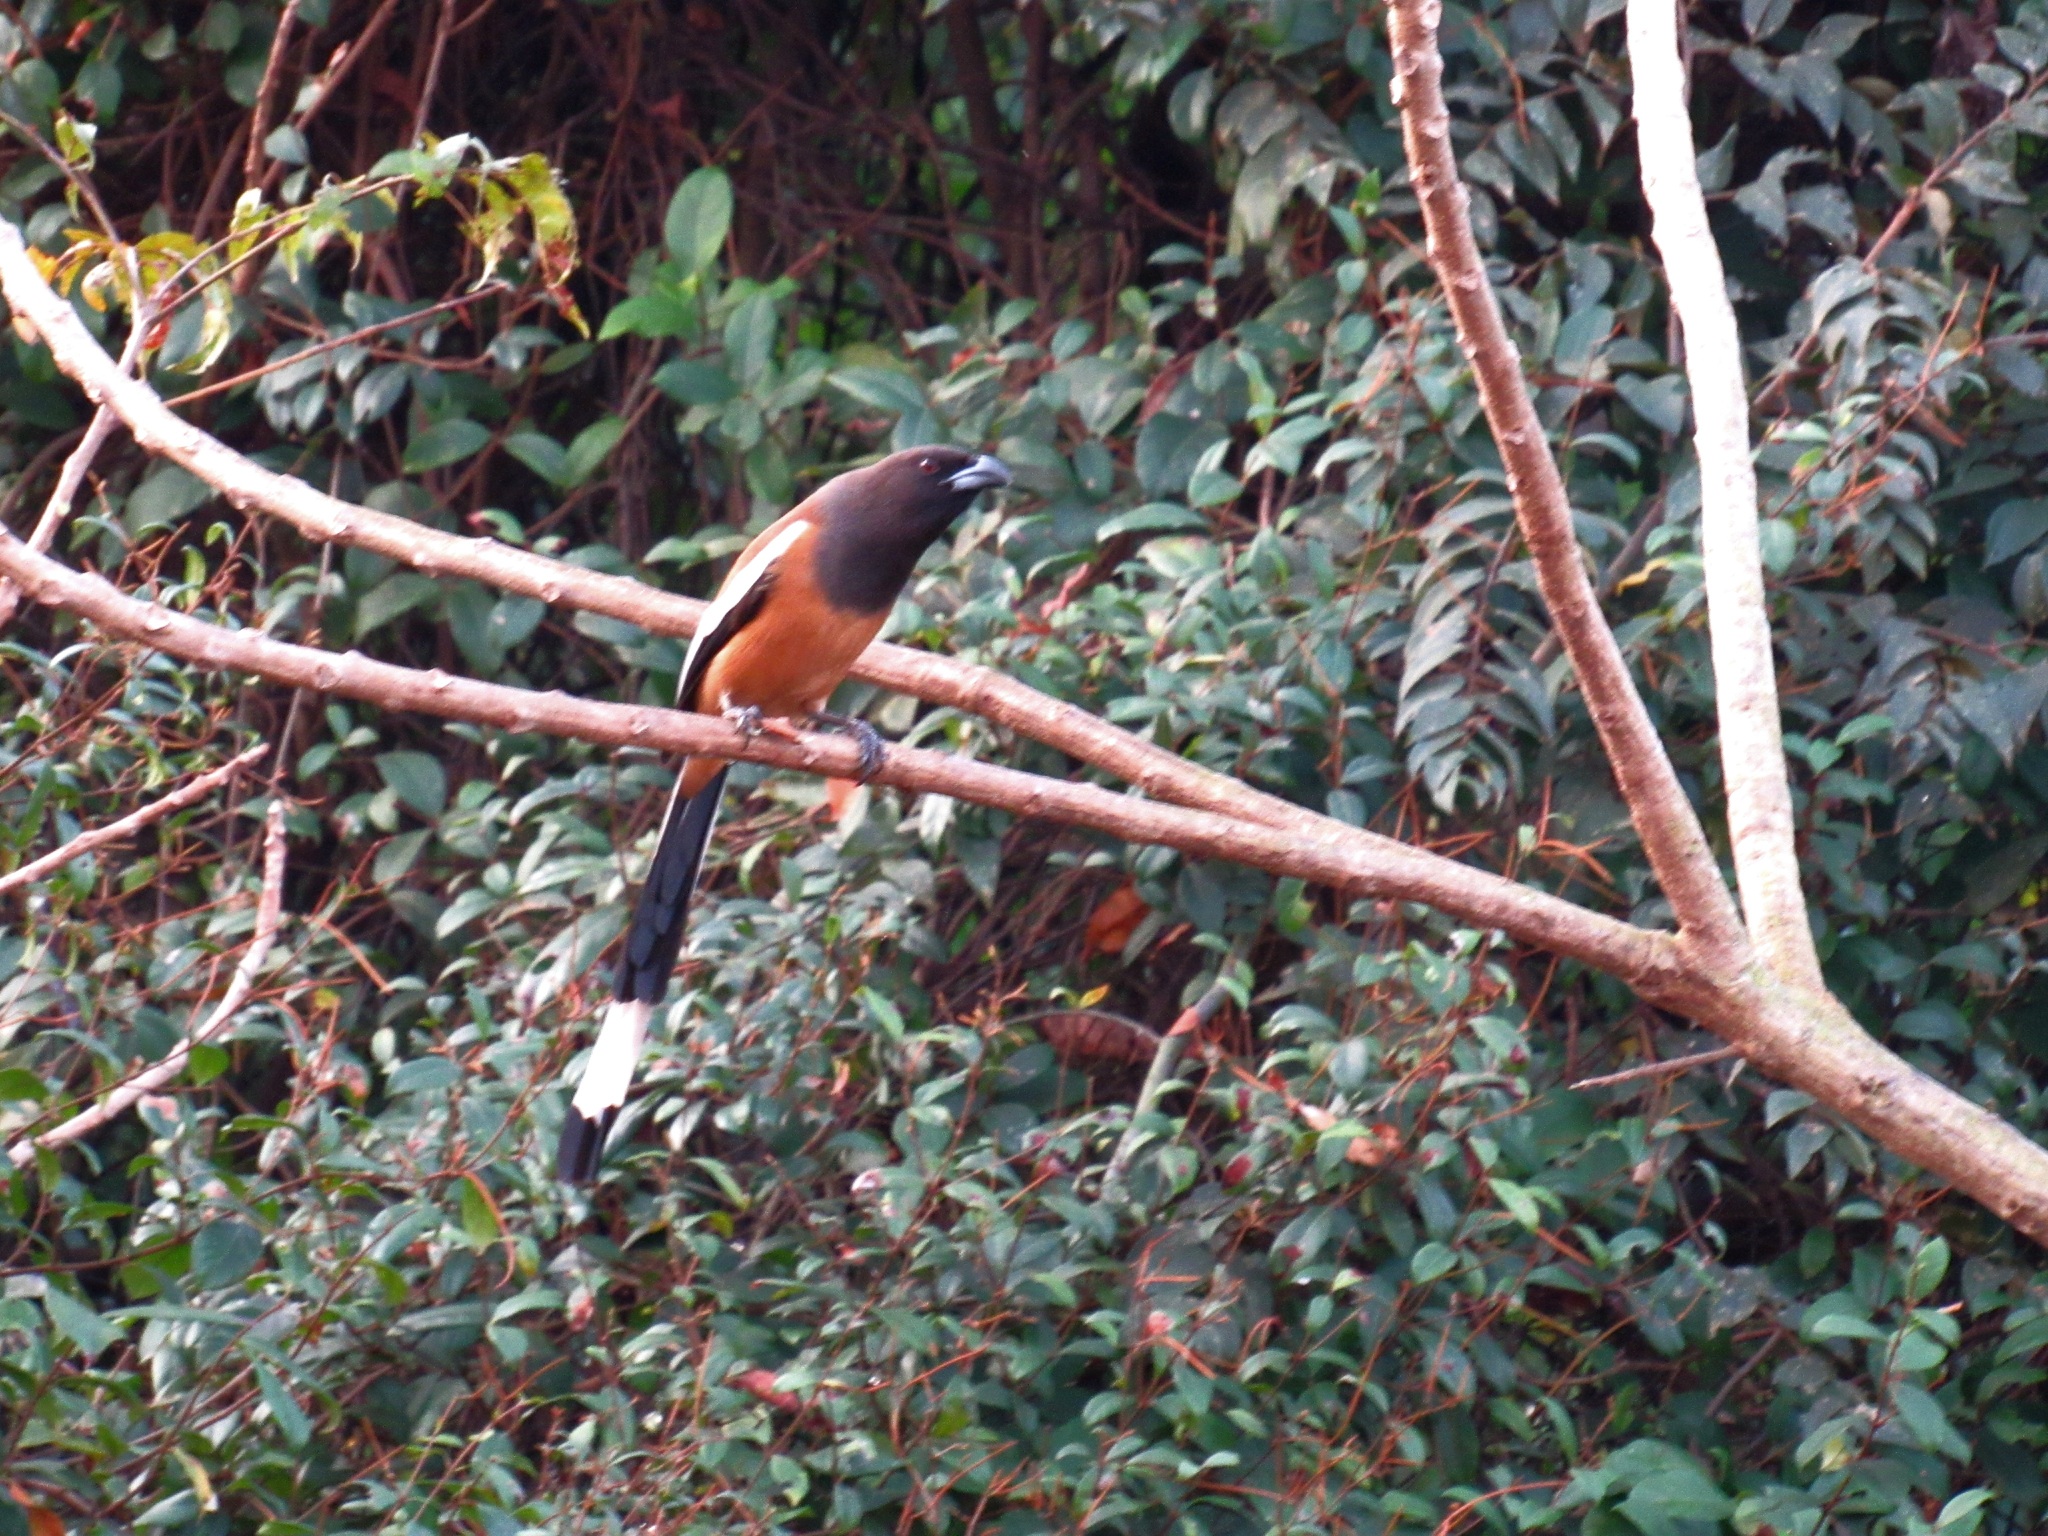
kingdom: Animalia
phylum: Chordata
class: Aves
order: Passeriformes
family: Corvidae
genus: Dendrocitta
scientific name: Dendrocitta vagabunda
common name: Rufous treepie
